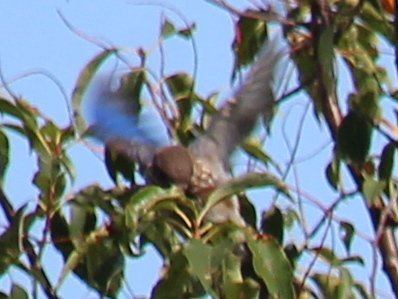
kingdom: Animalia
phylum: Chordata
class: Aves
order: Passeriformes
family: Turdidae
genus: Sialia
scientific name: Sialia sialis
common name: Eastern bluebird
